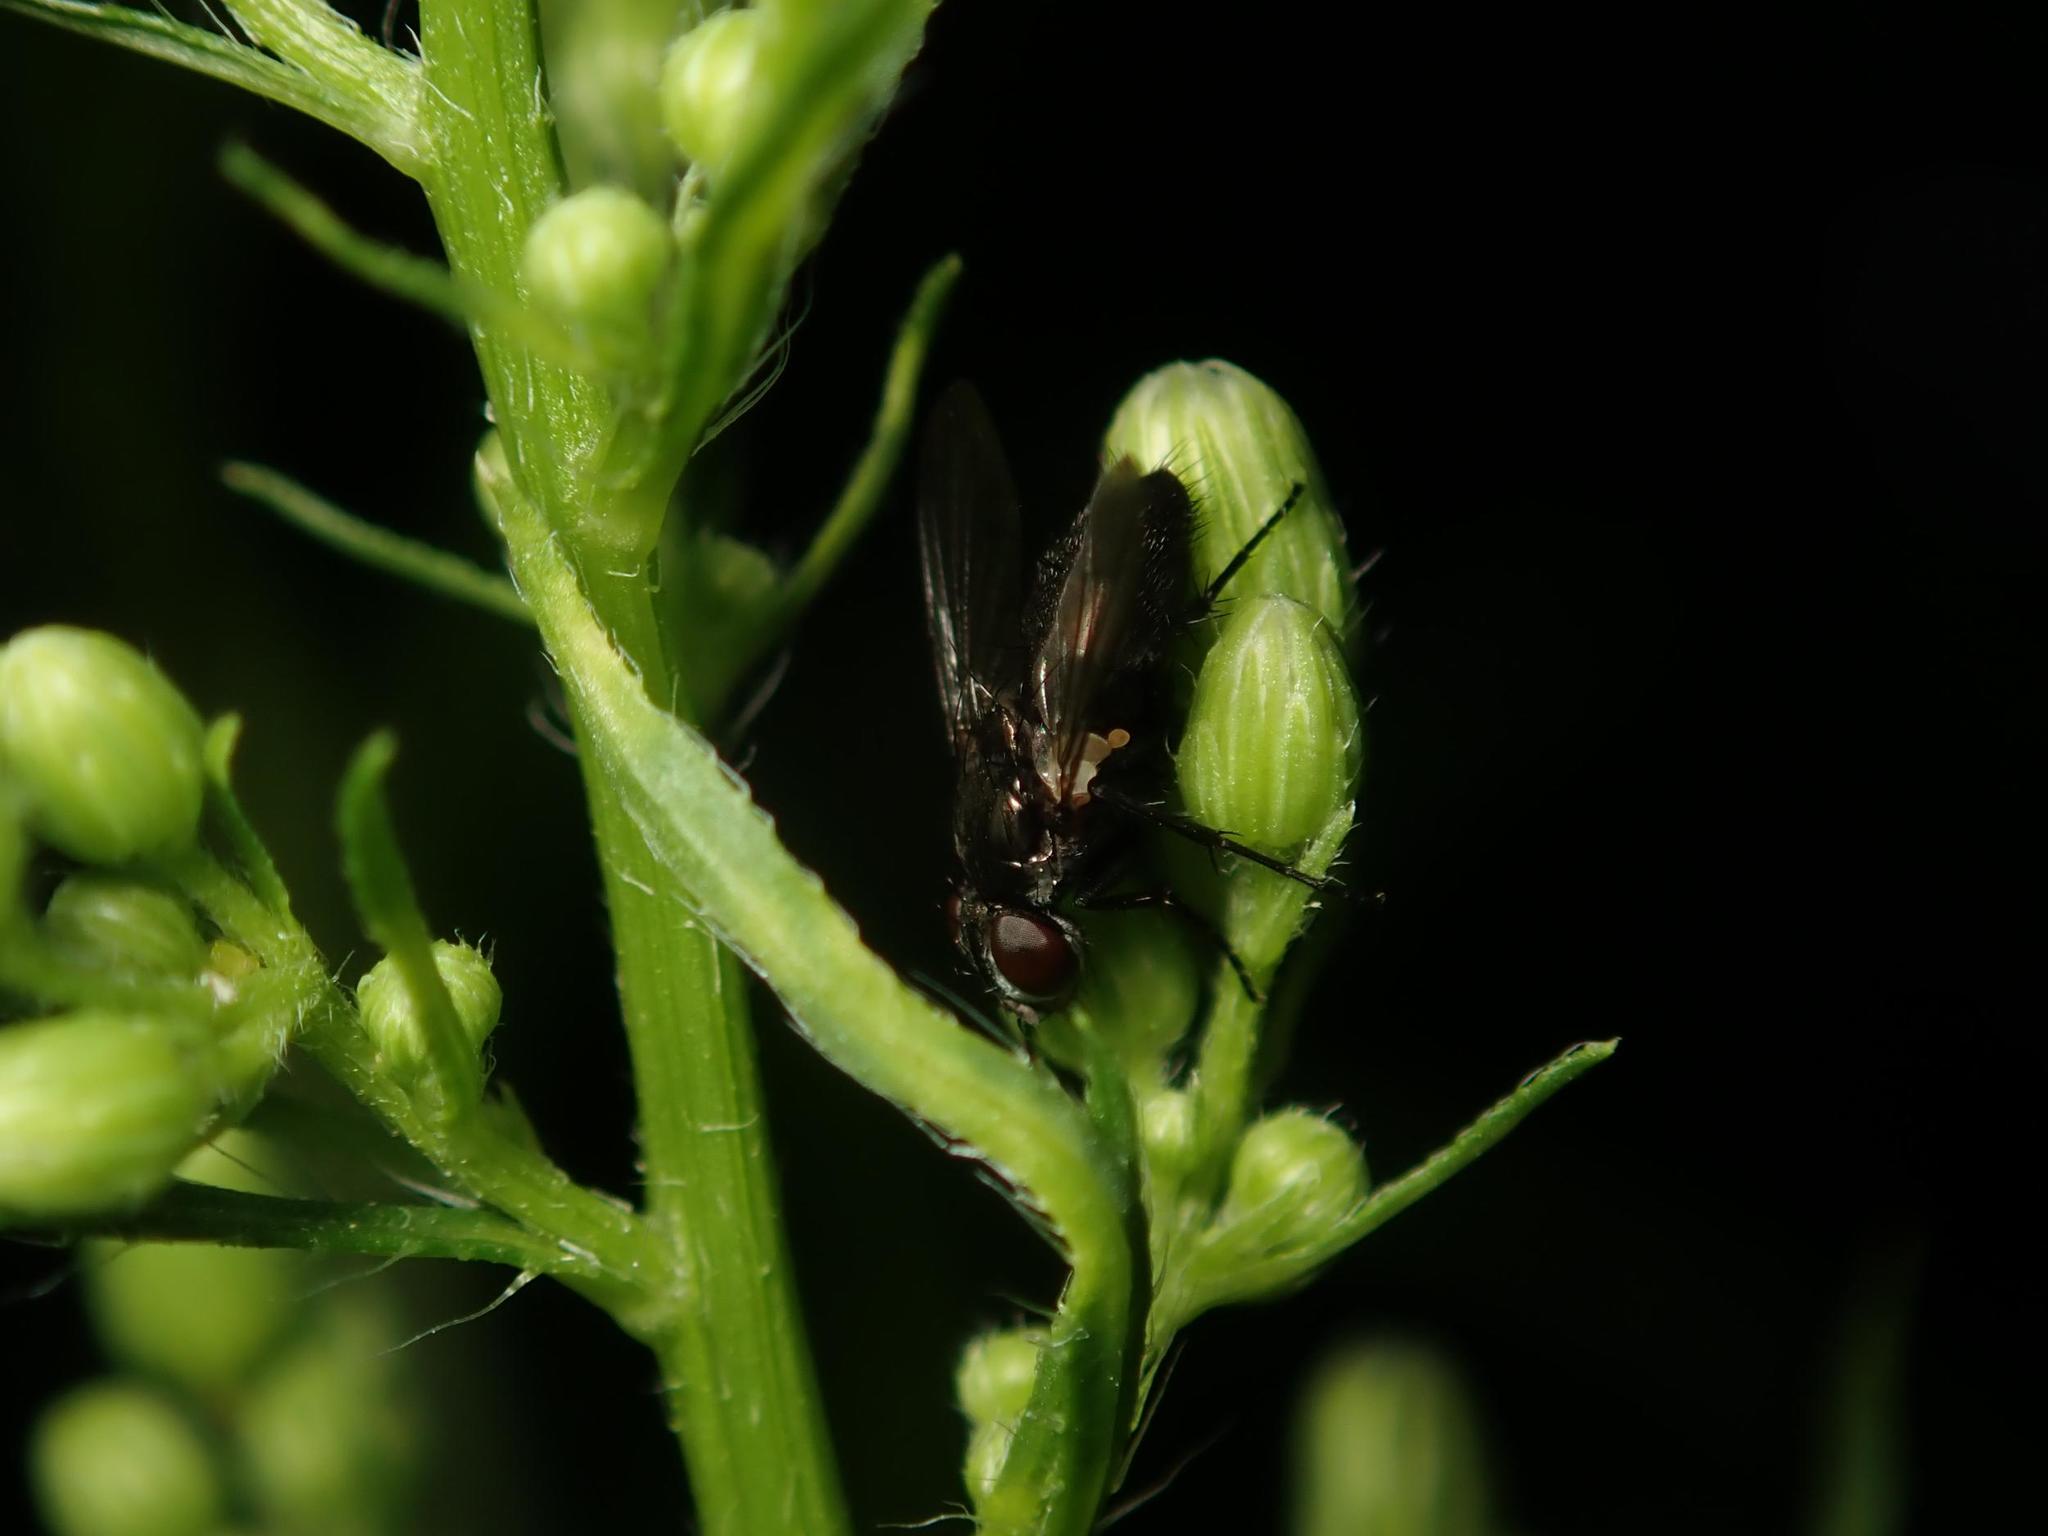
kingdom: Animalia
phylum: Arthropoda
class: Insecta
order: Diptera
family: Calliphoridae
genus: Rhinophora
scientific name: Rhinophora lepida
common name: Pouting woodlouse-fly
